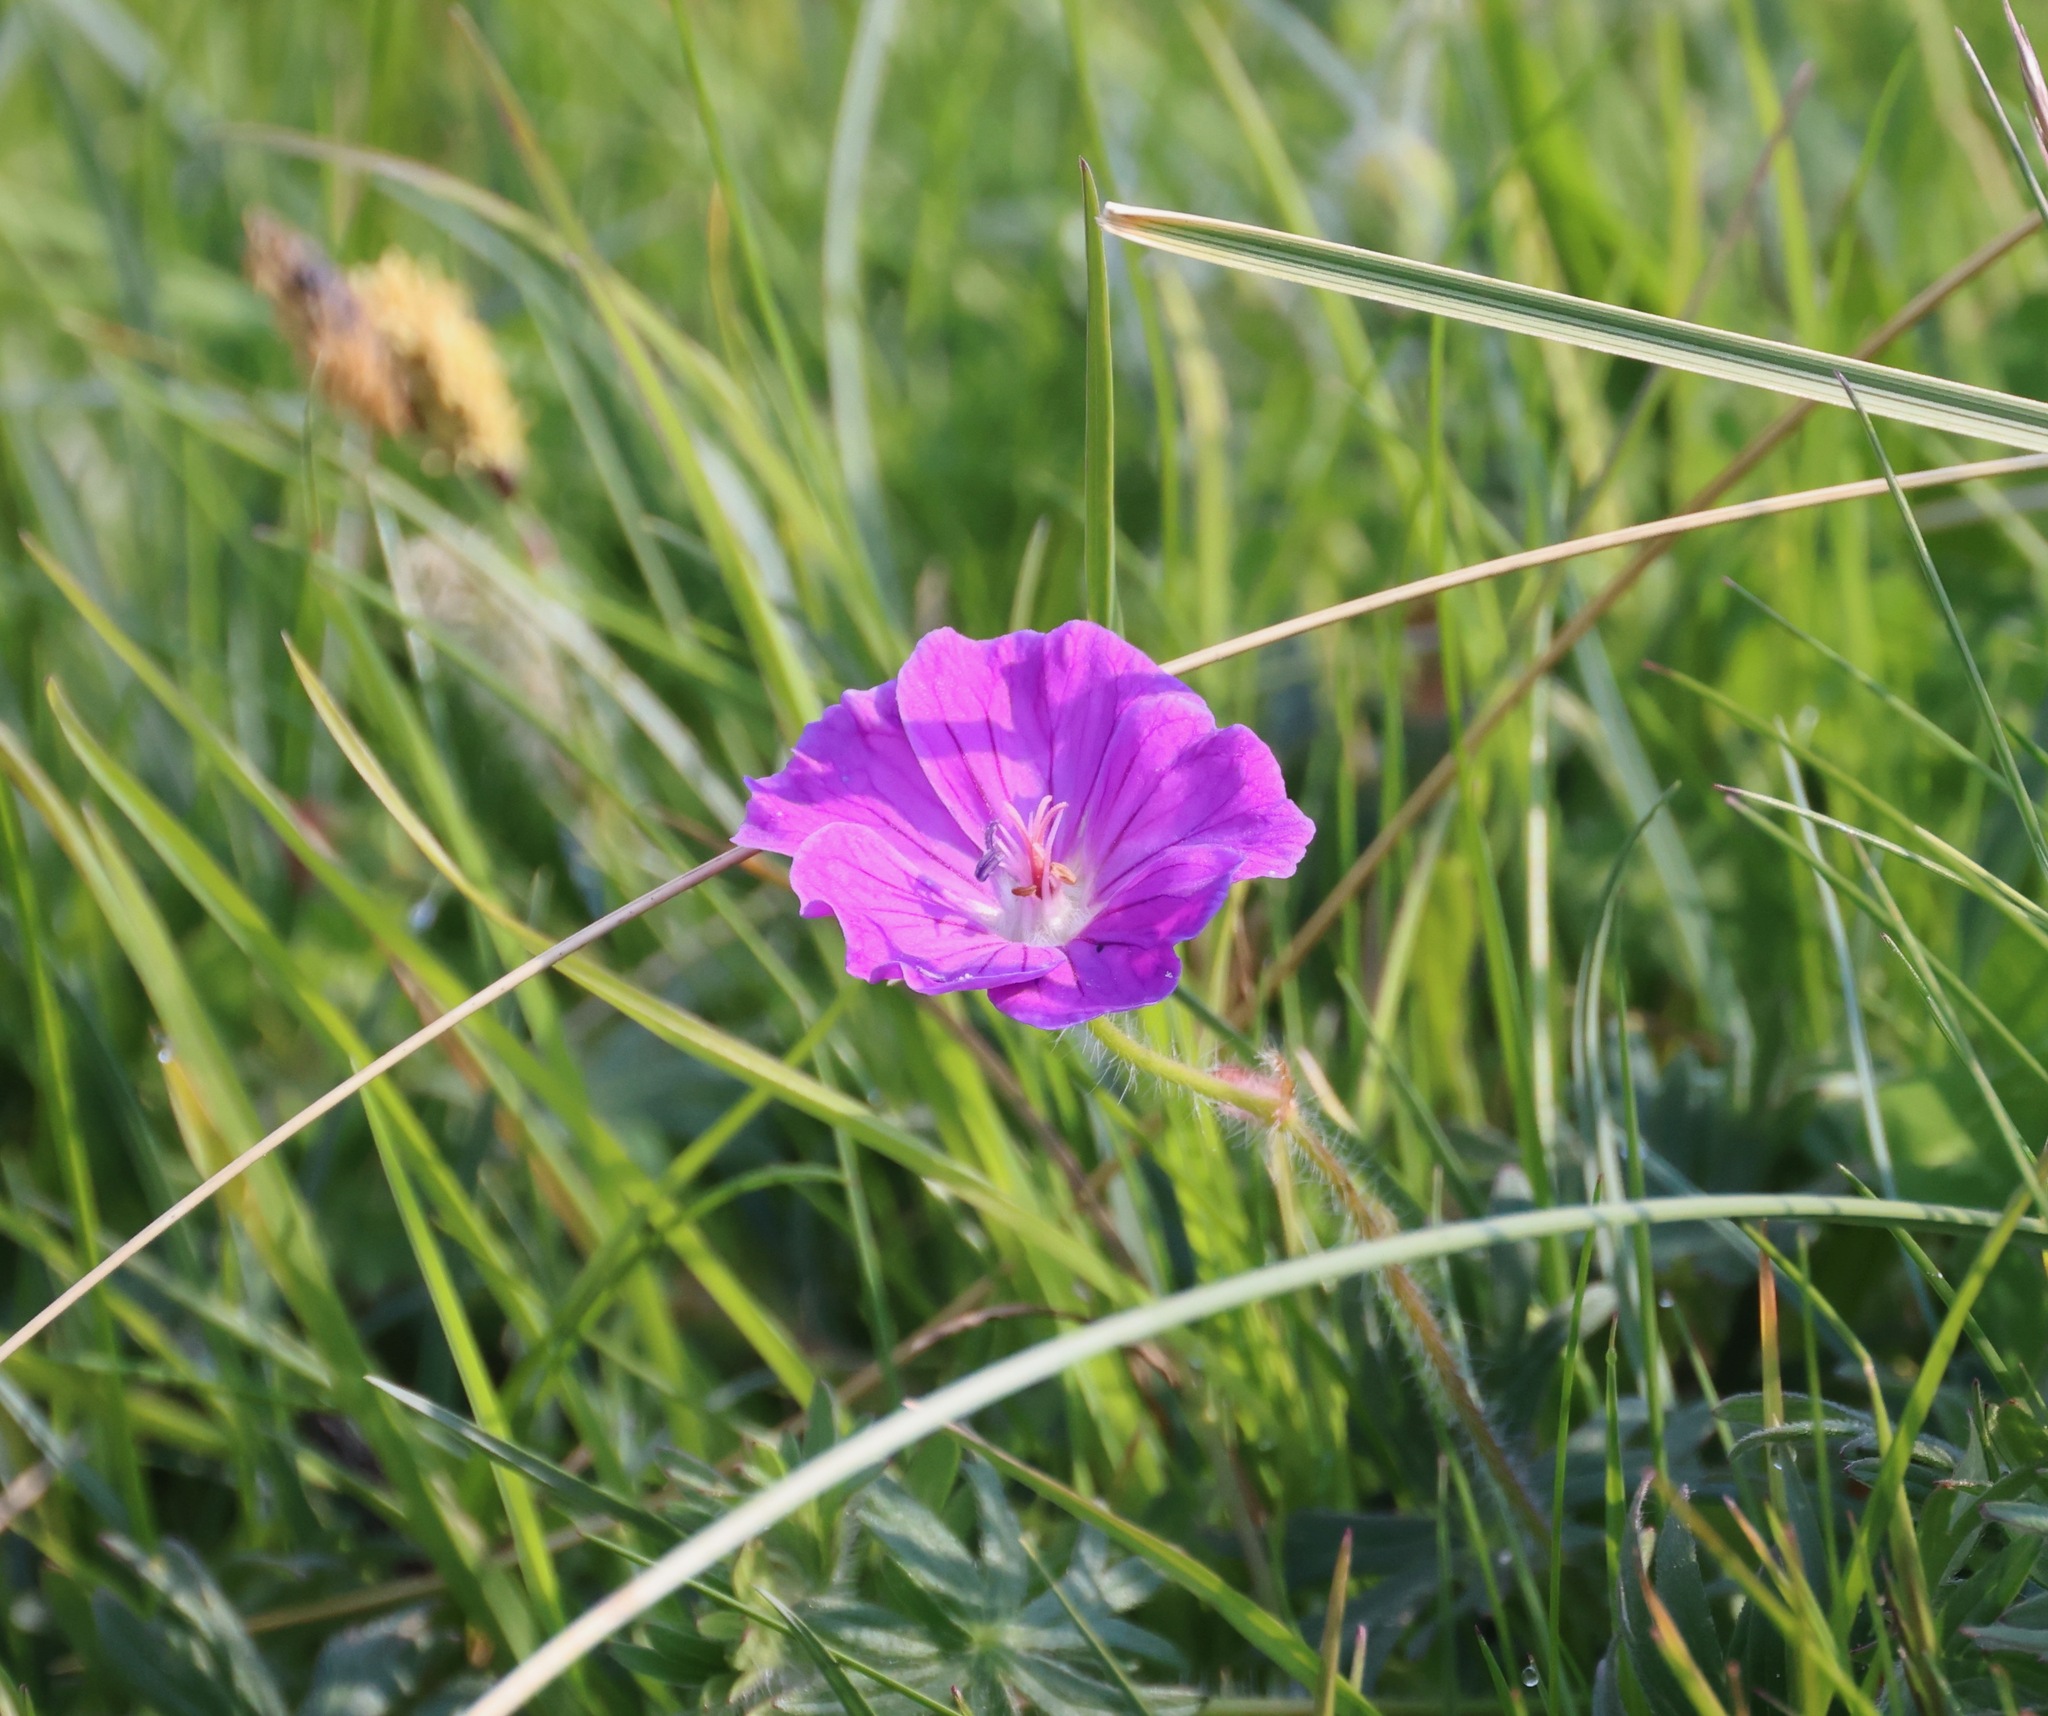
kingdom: Plantae
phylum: Tracheophyta
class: Magnoliopsida
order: Geraniales
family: Geraniaceae
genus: Geranium
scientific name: Geranium sanguineum
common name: Bloody crane's-bill
